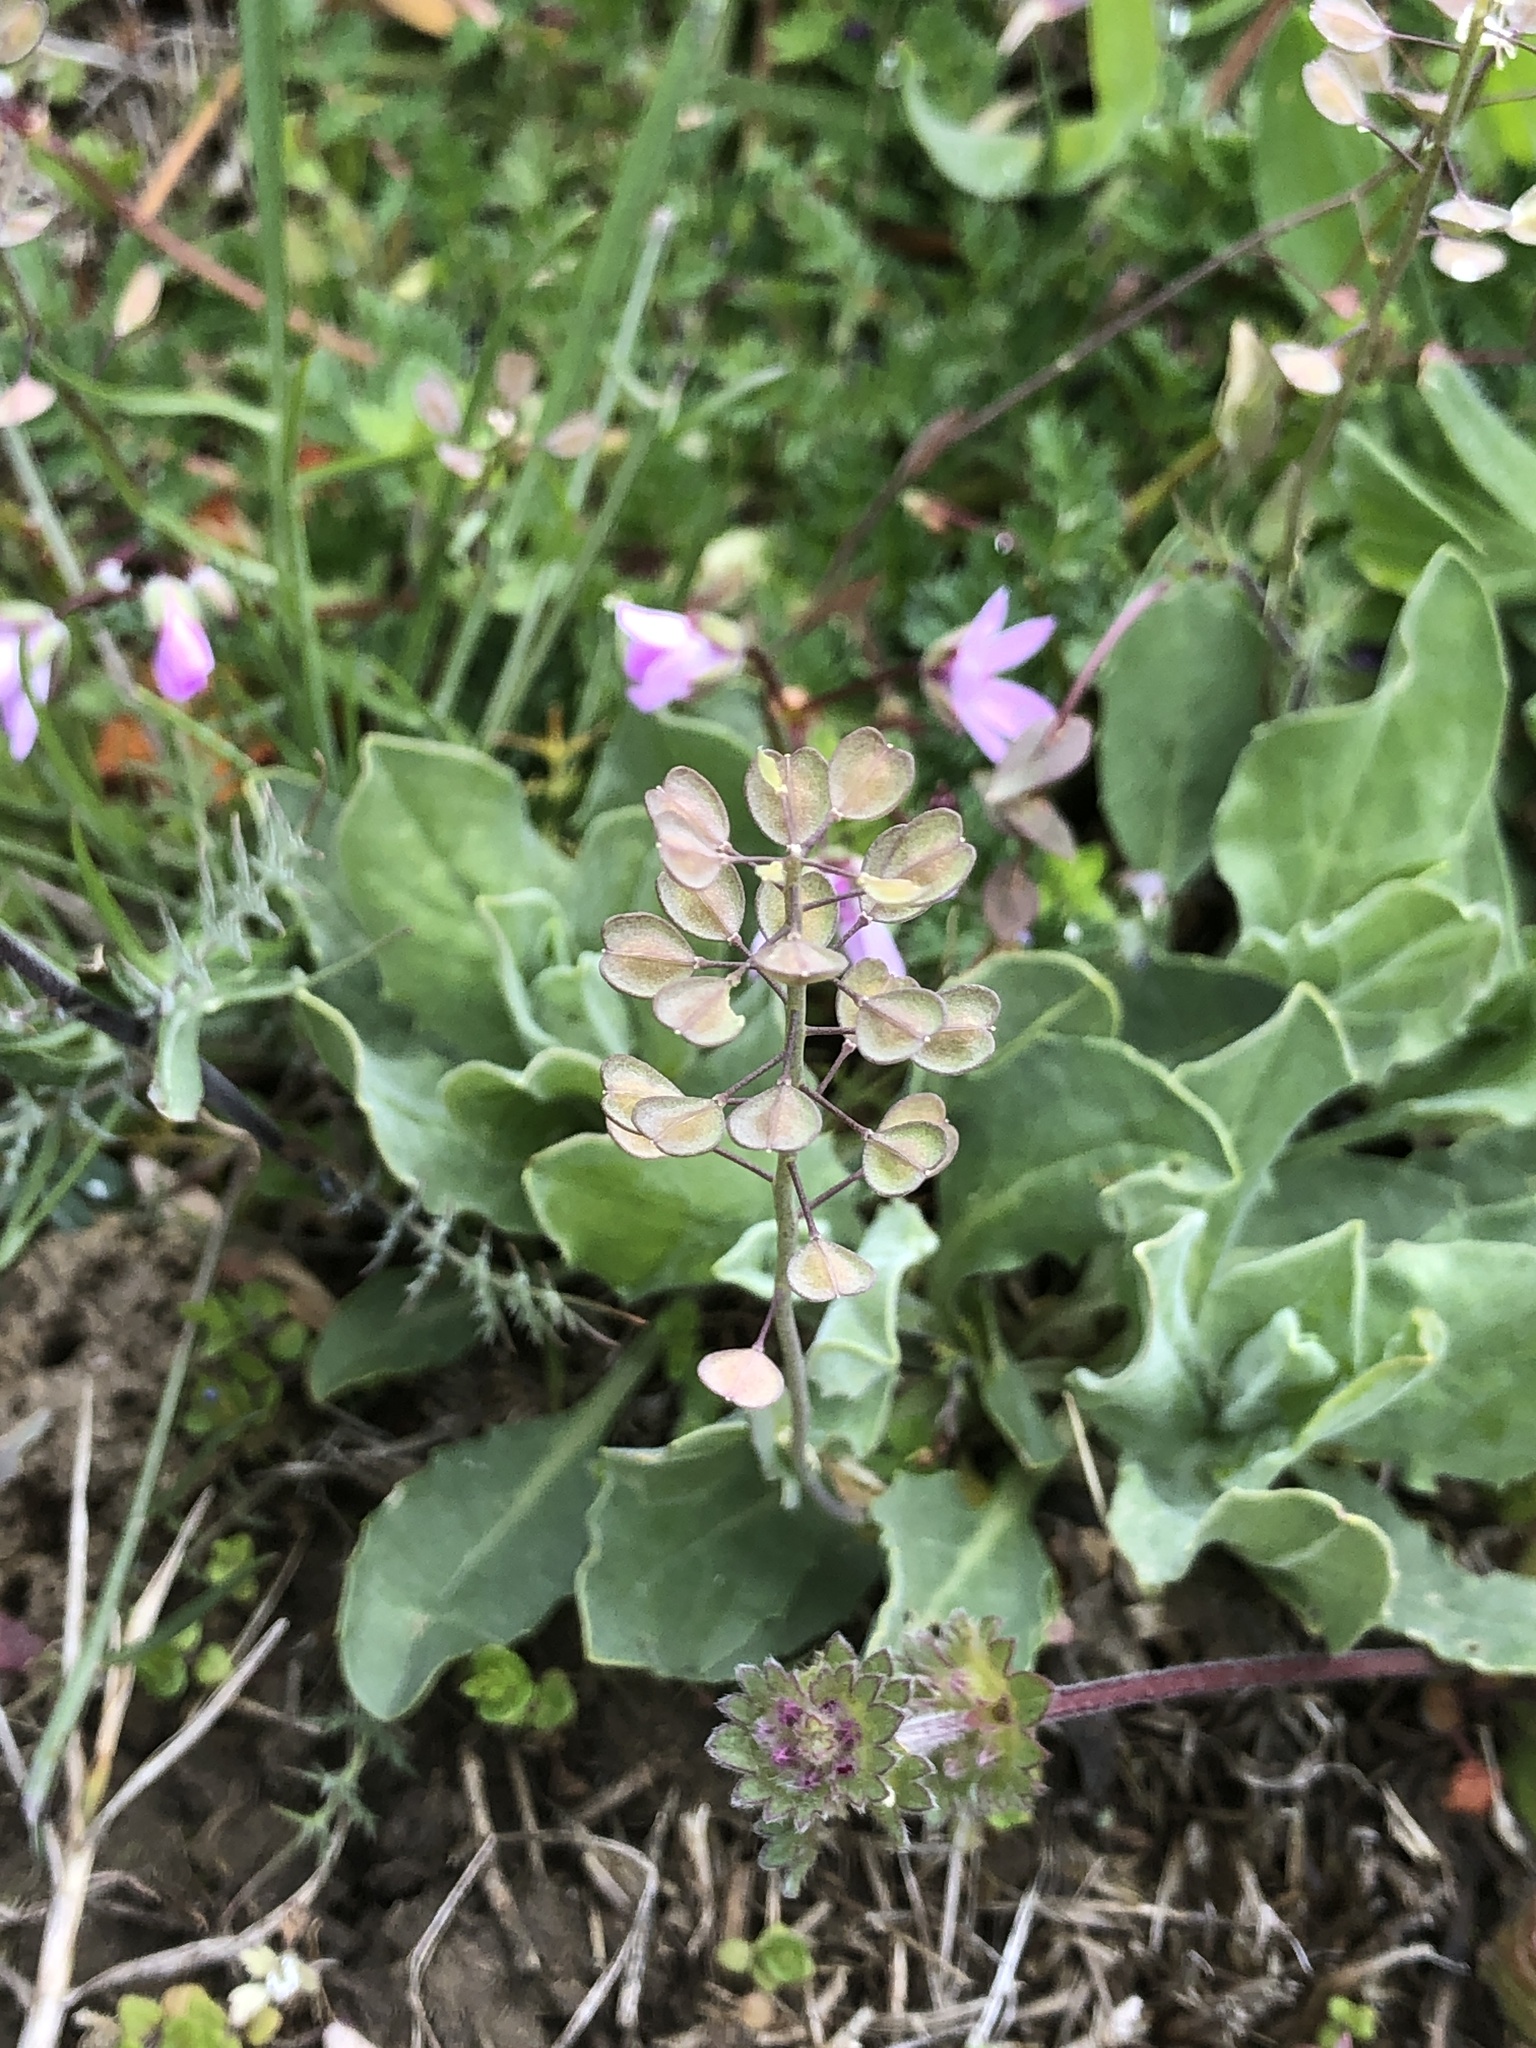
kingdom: Plantae
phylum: Tracheophyta
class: Magnoliopsida
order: Brassicales
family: Brassicaceae
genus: Noccaea
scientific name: Noccaea perfoliata
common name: Perfoliate pennycress
